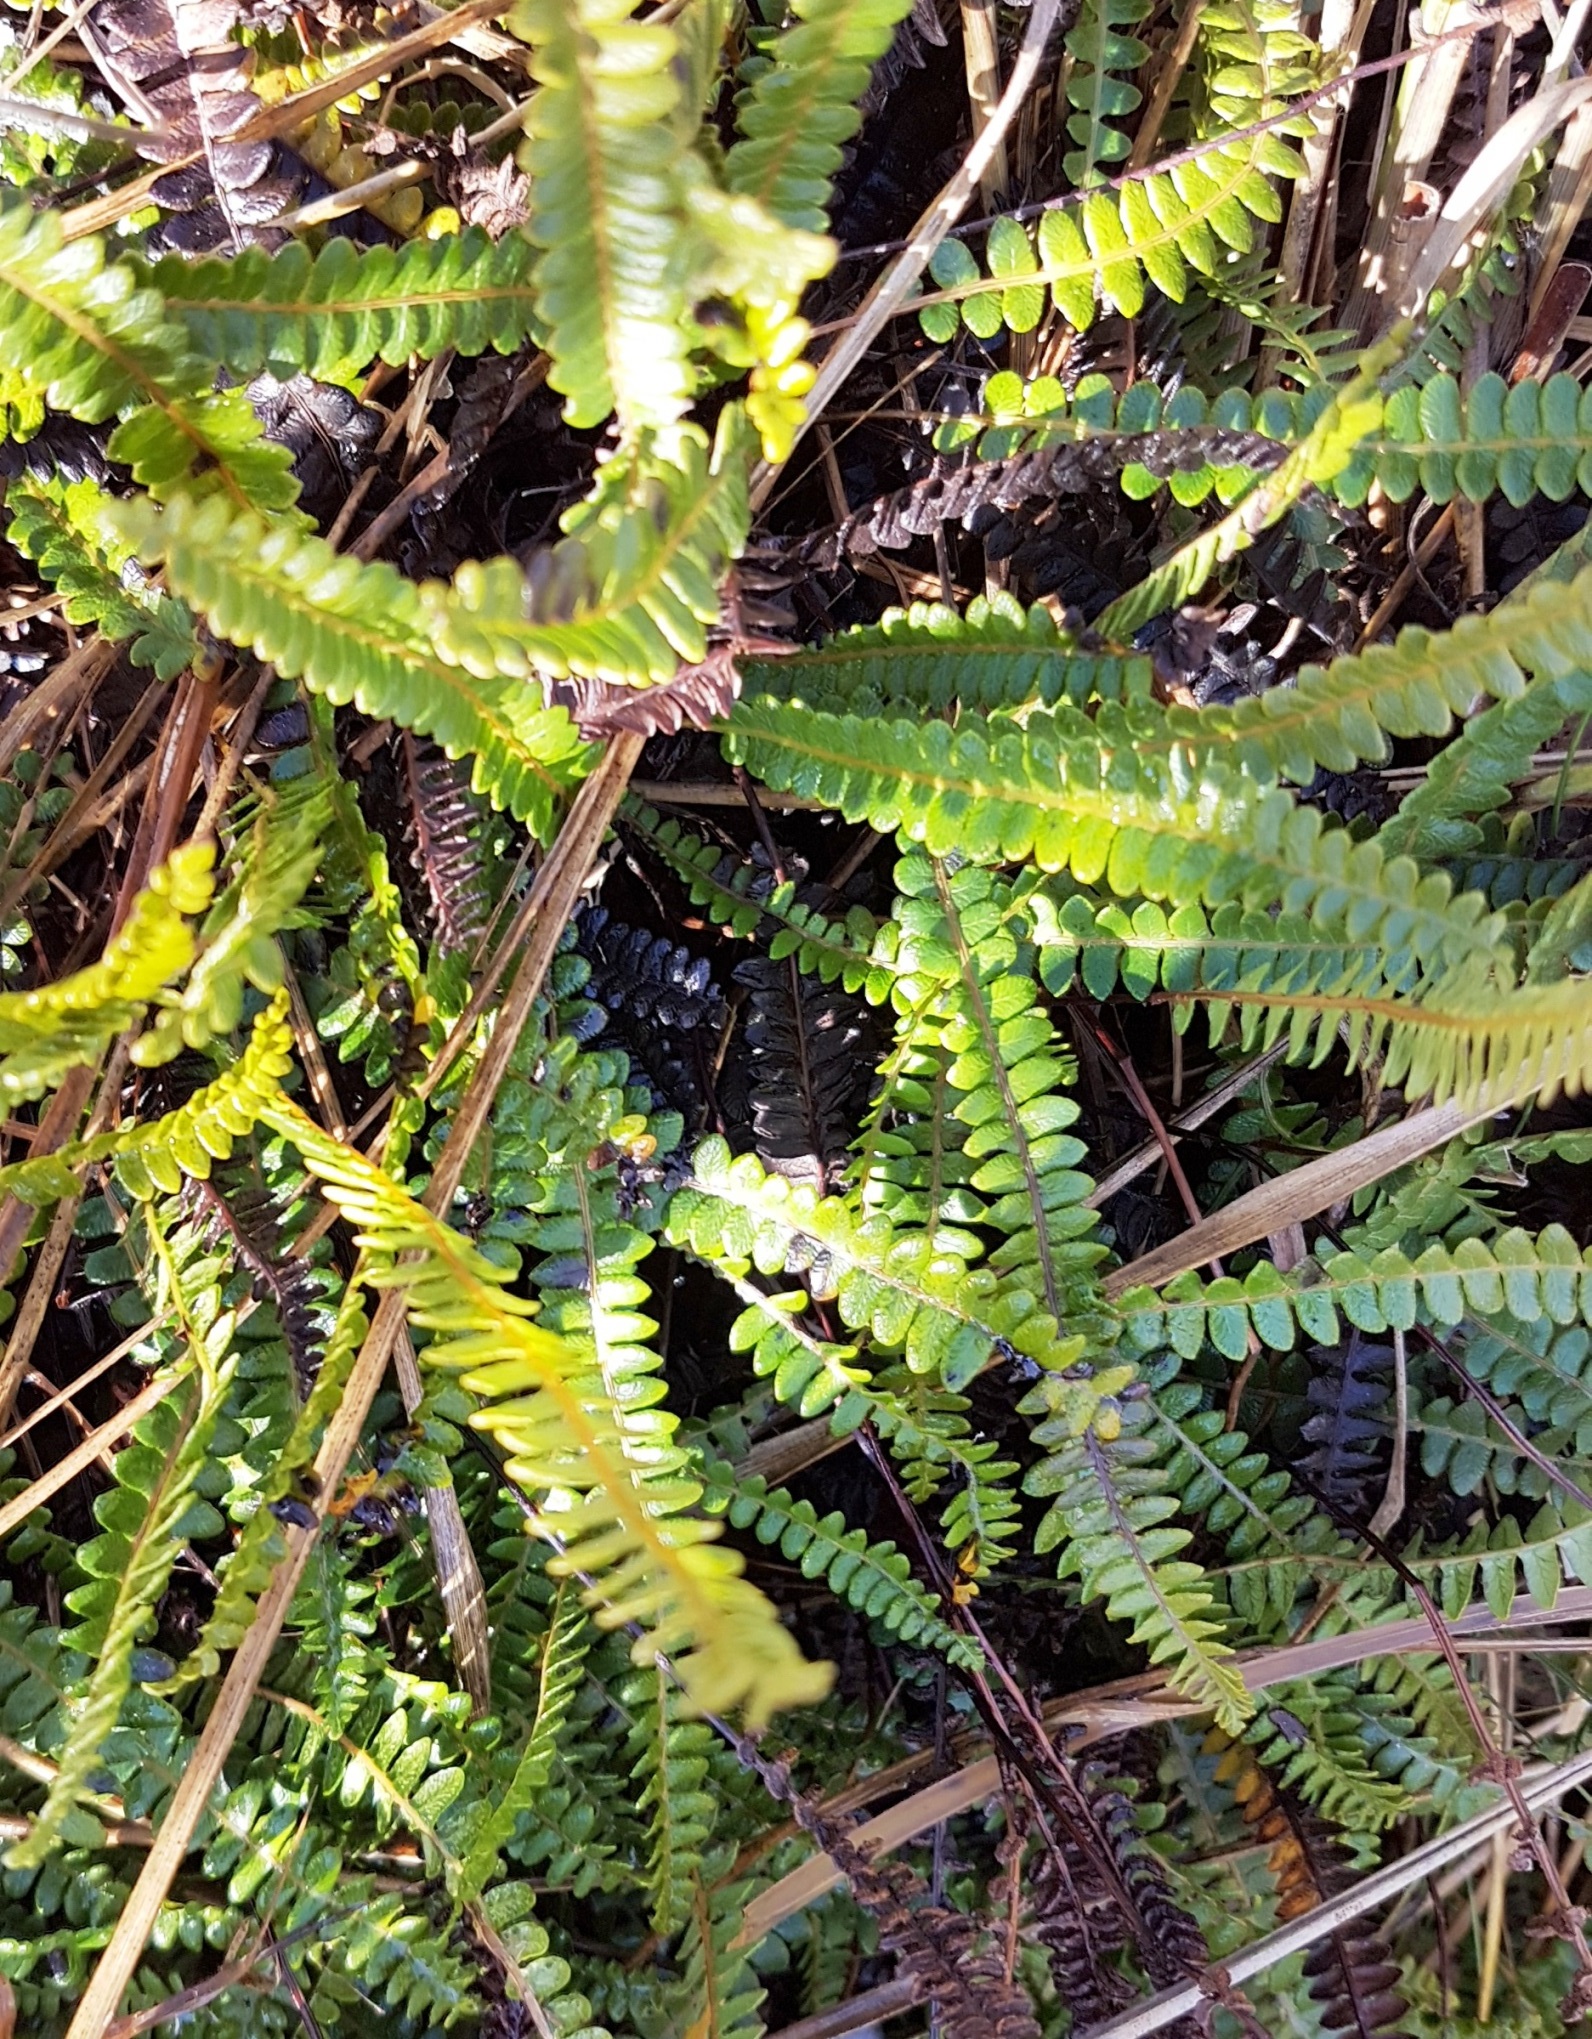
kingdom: Plantae
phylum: Tracheophyta
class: Polypodiopsida
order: Polypodiales
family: Blechnaceae
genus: Austroblechnum
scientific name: Austroblechnum penna-marina
